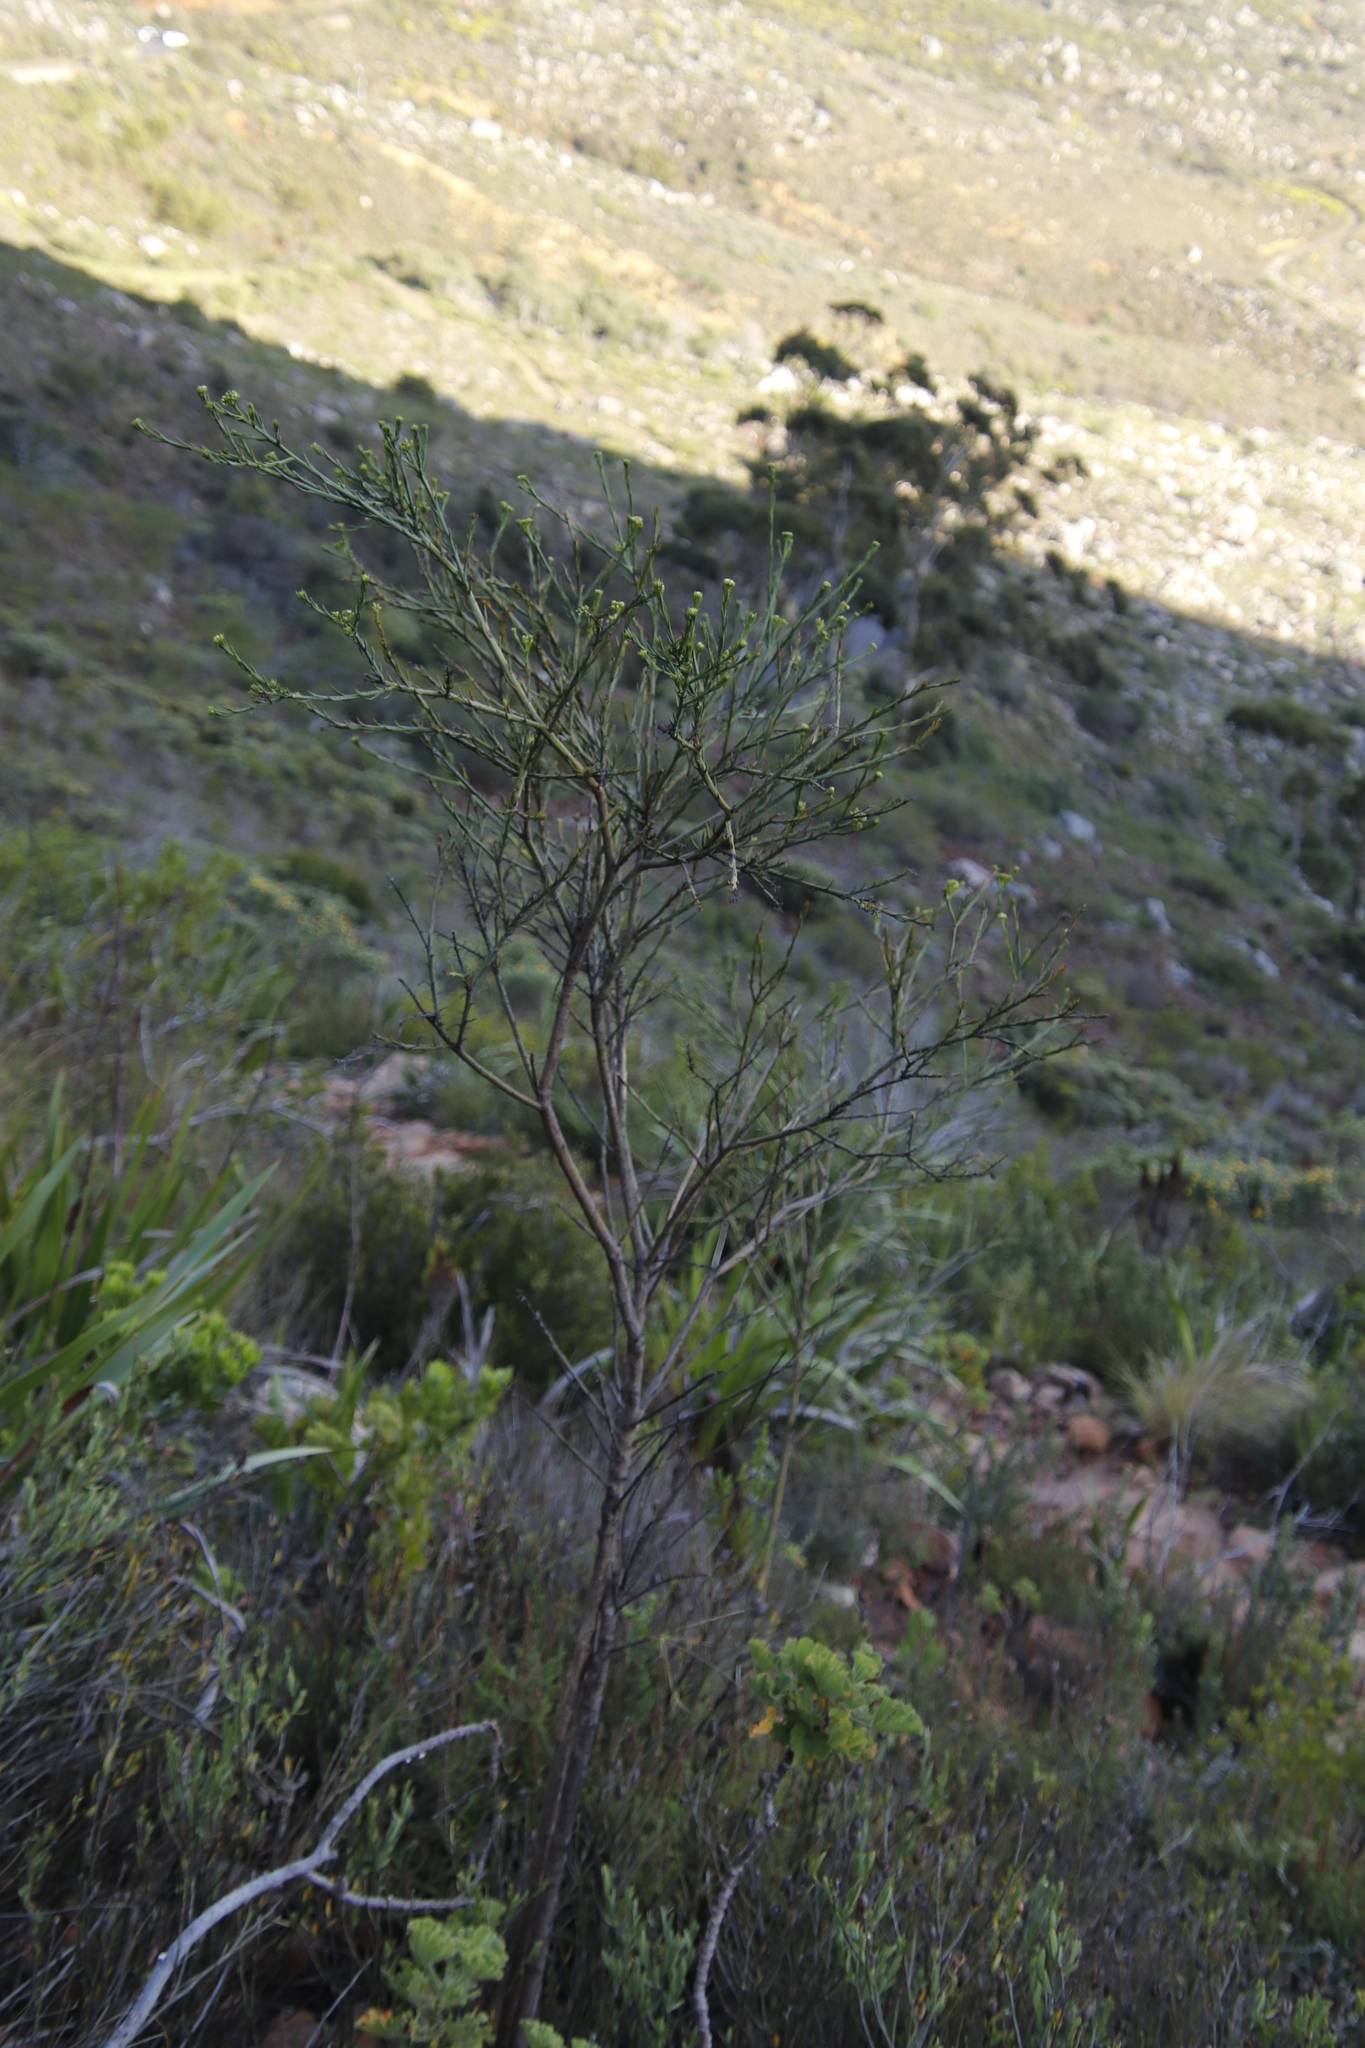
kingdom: Plantae
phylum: Tracheophyta
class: Magnoliopsida
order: Santalales
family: Thesiaceae
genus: Thesium
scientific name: Thesium strictum
